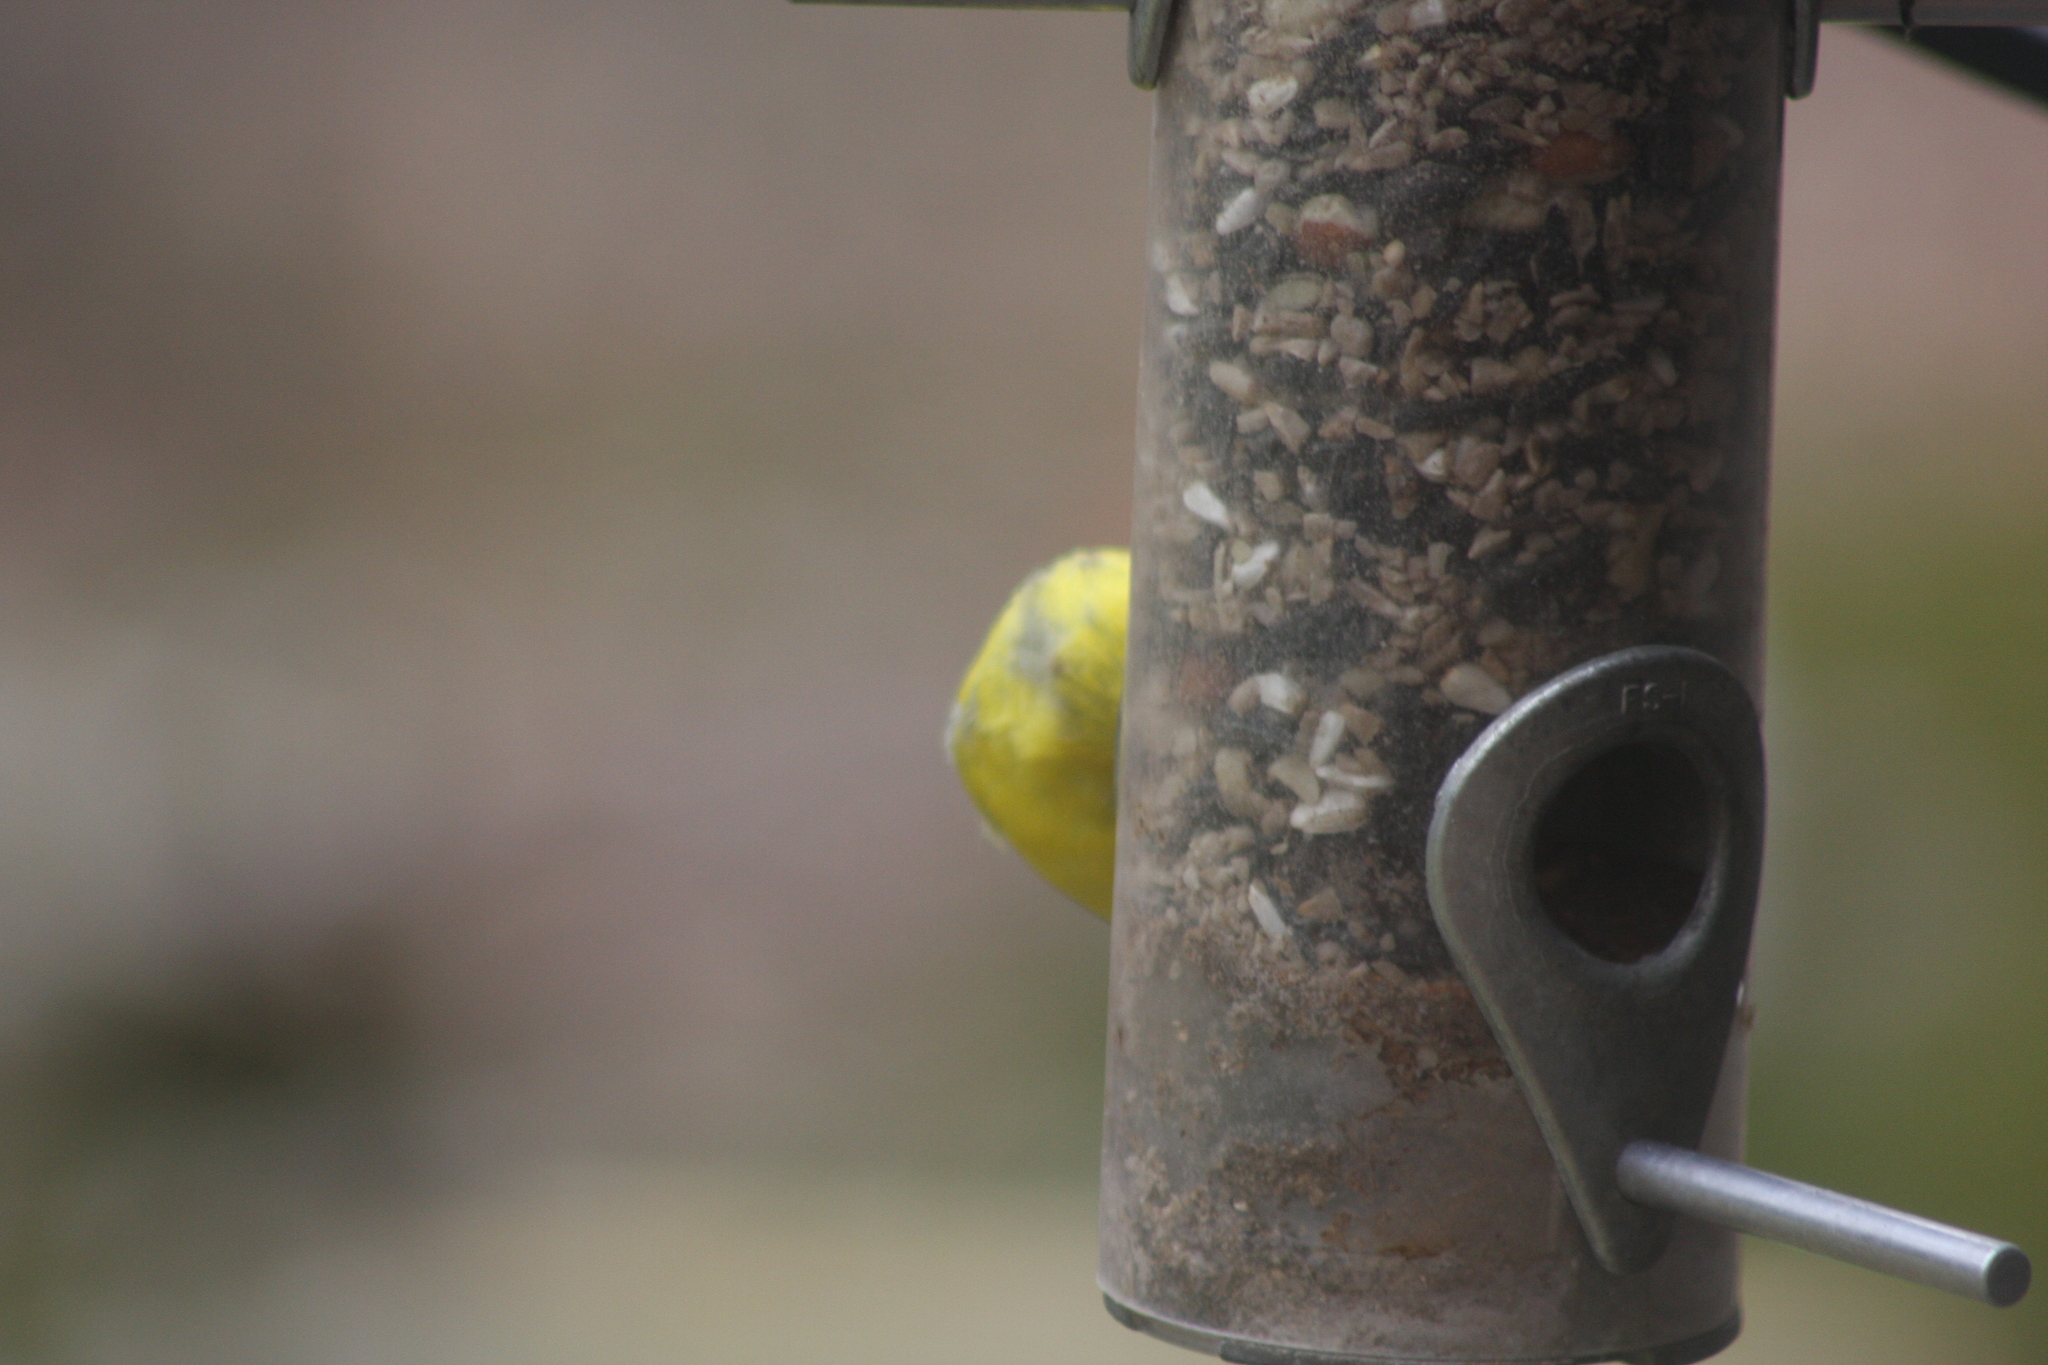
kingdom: Animalia
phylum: Chordata
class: Aves
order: Passeriformes
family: Fringillidae
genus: Spinus
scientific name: Spinus tristis
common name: American goldfinch
